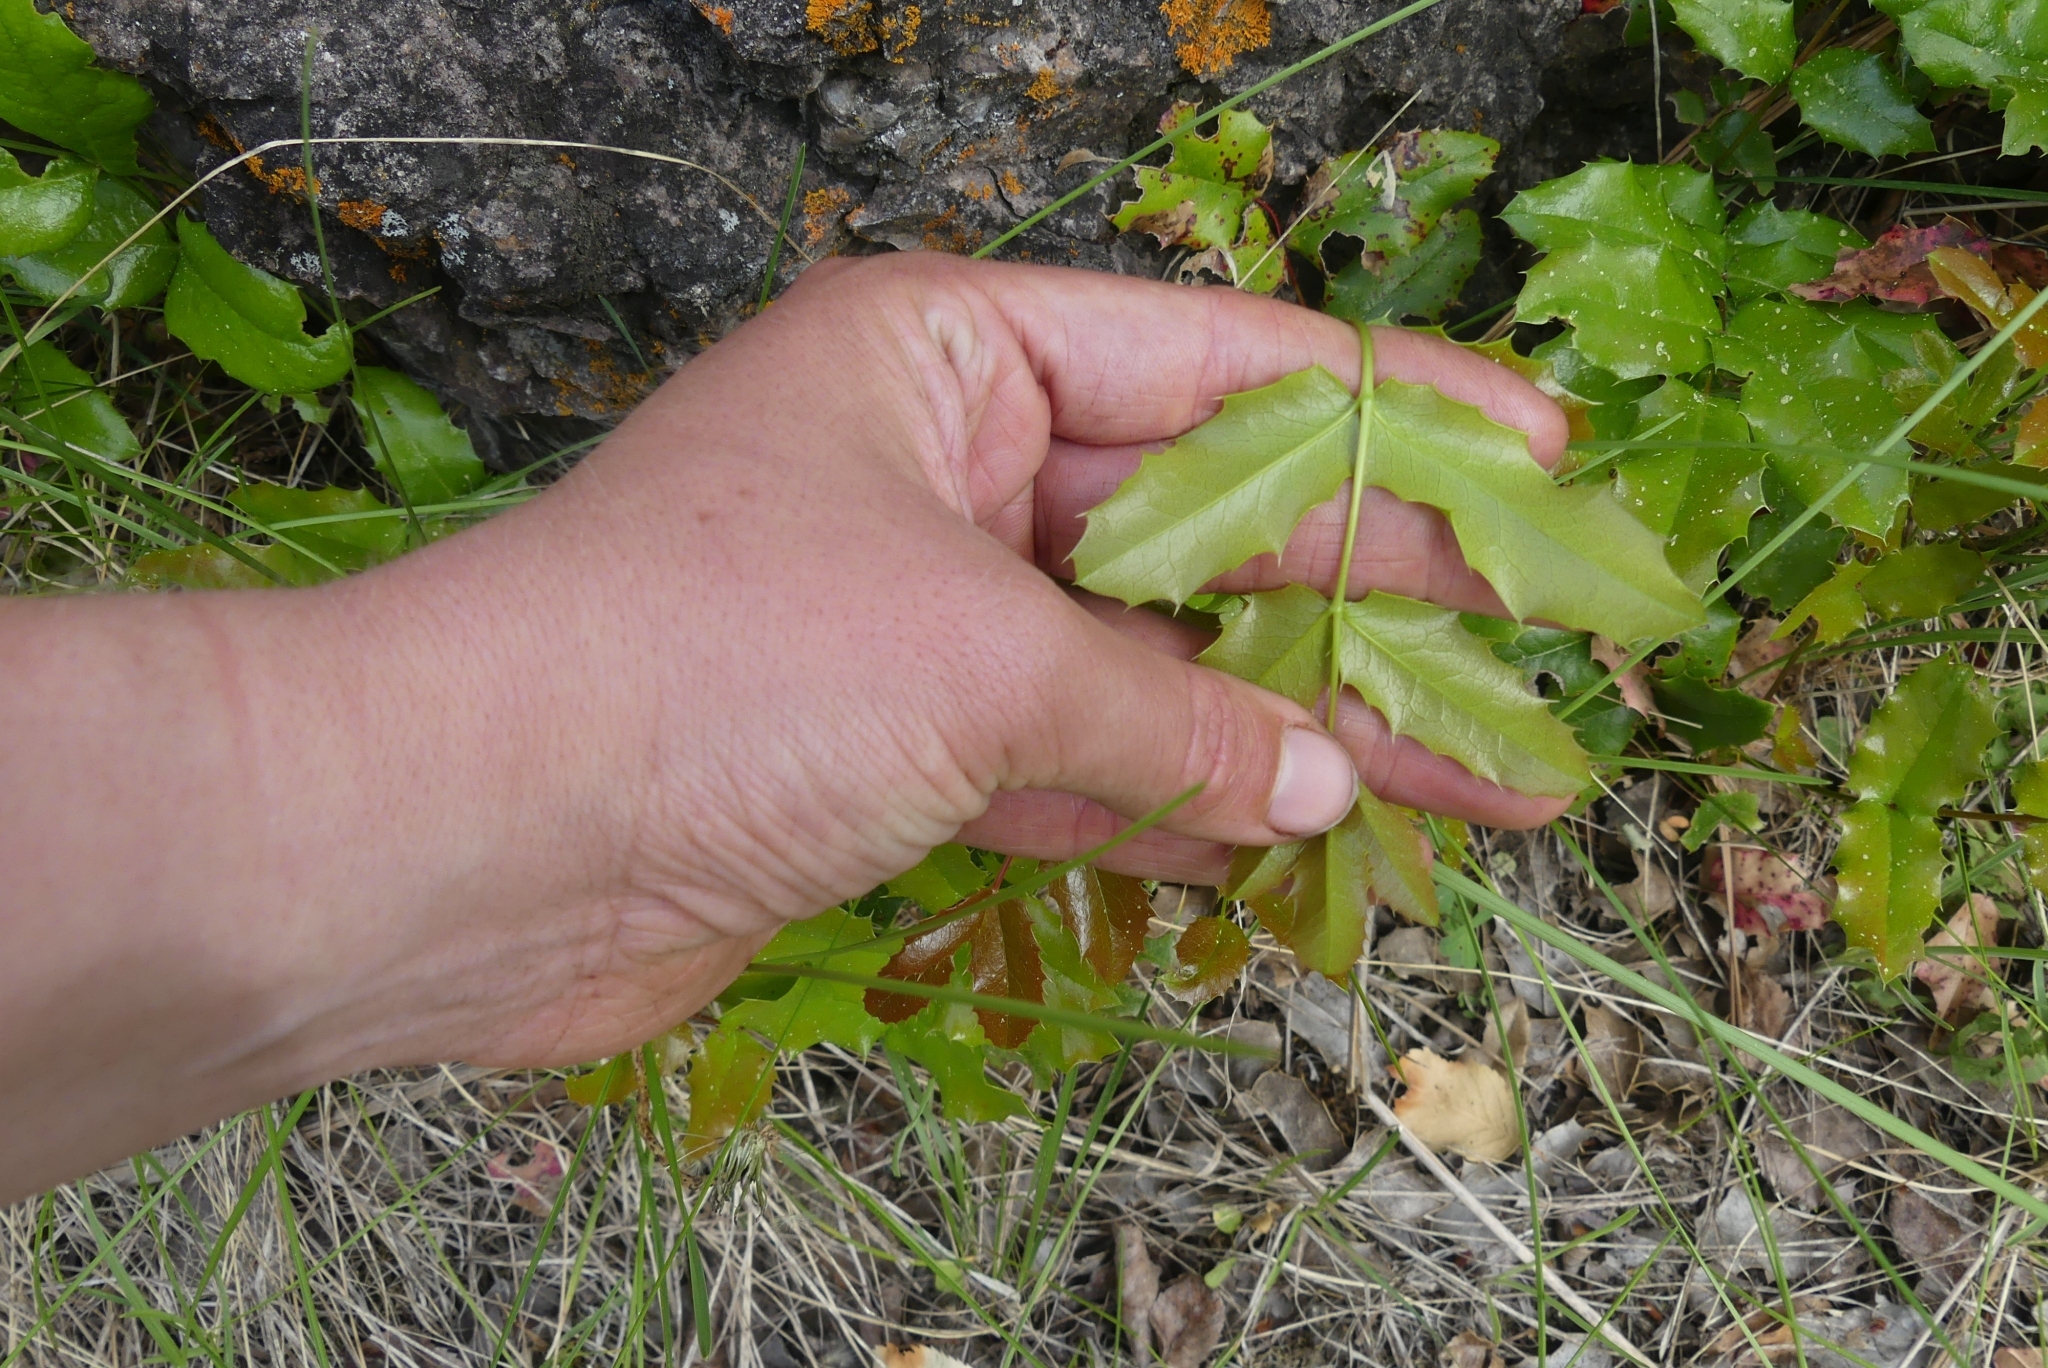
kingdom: Plantae
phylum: Tracheophyta
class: Magnoliopsida
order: Ranunculales
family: Berberidaceae
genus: Mahonia
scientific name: Mahonia aquifolium
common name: Oregon-grape
